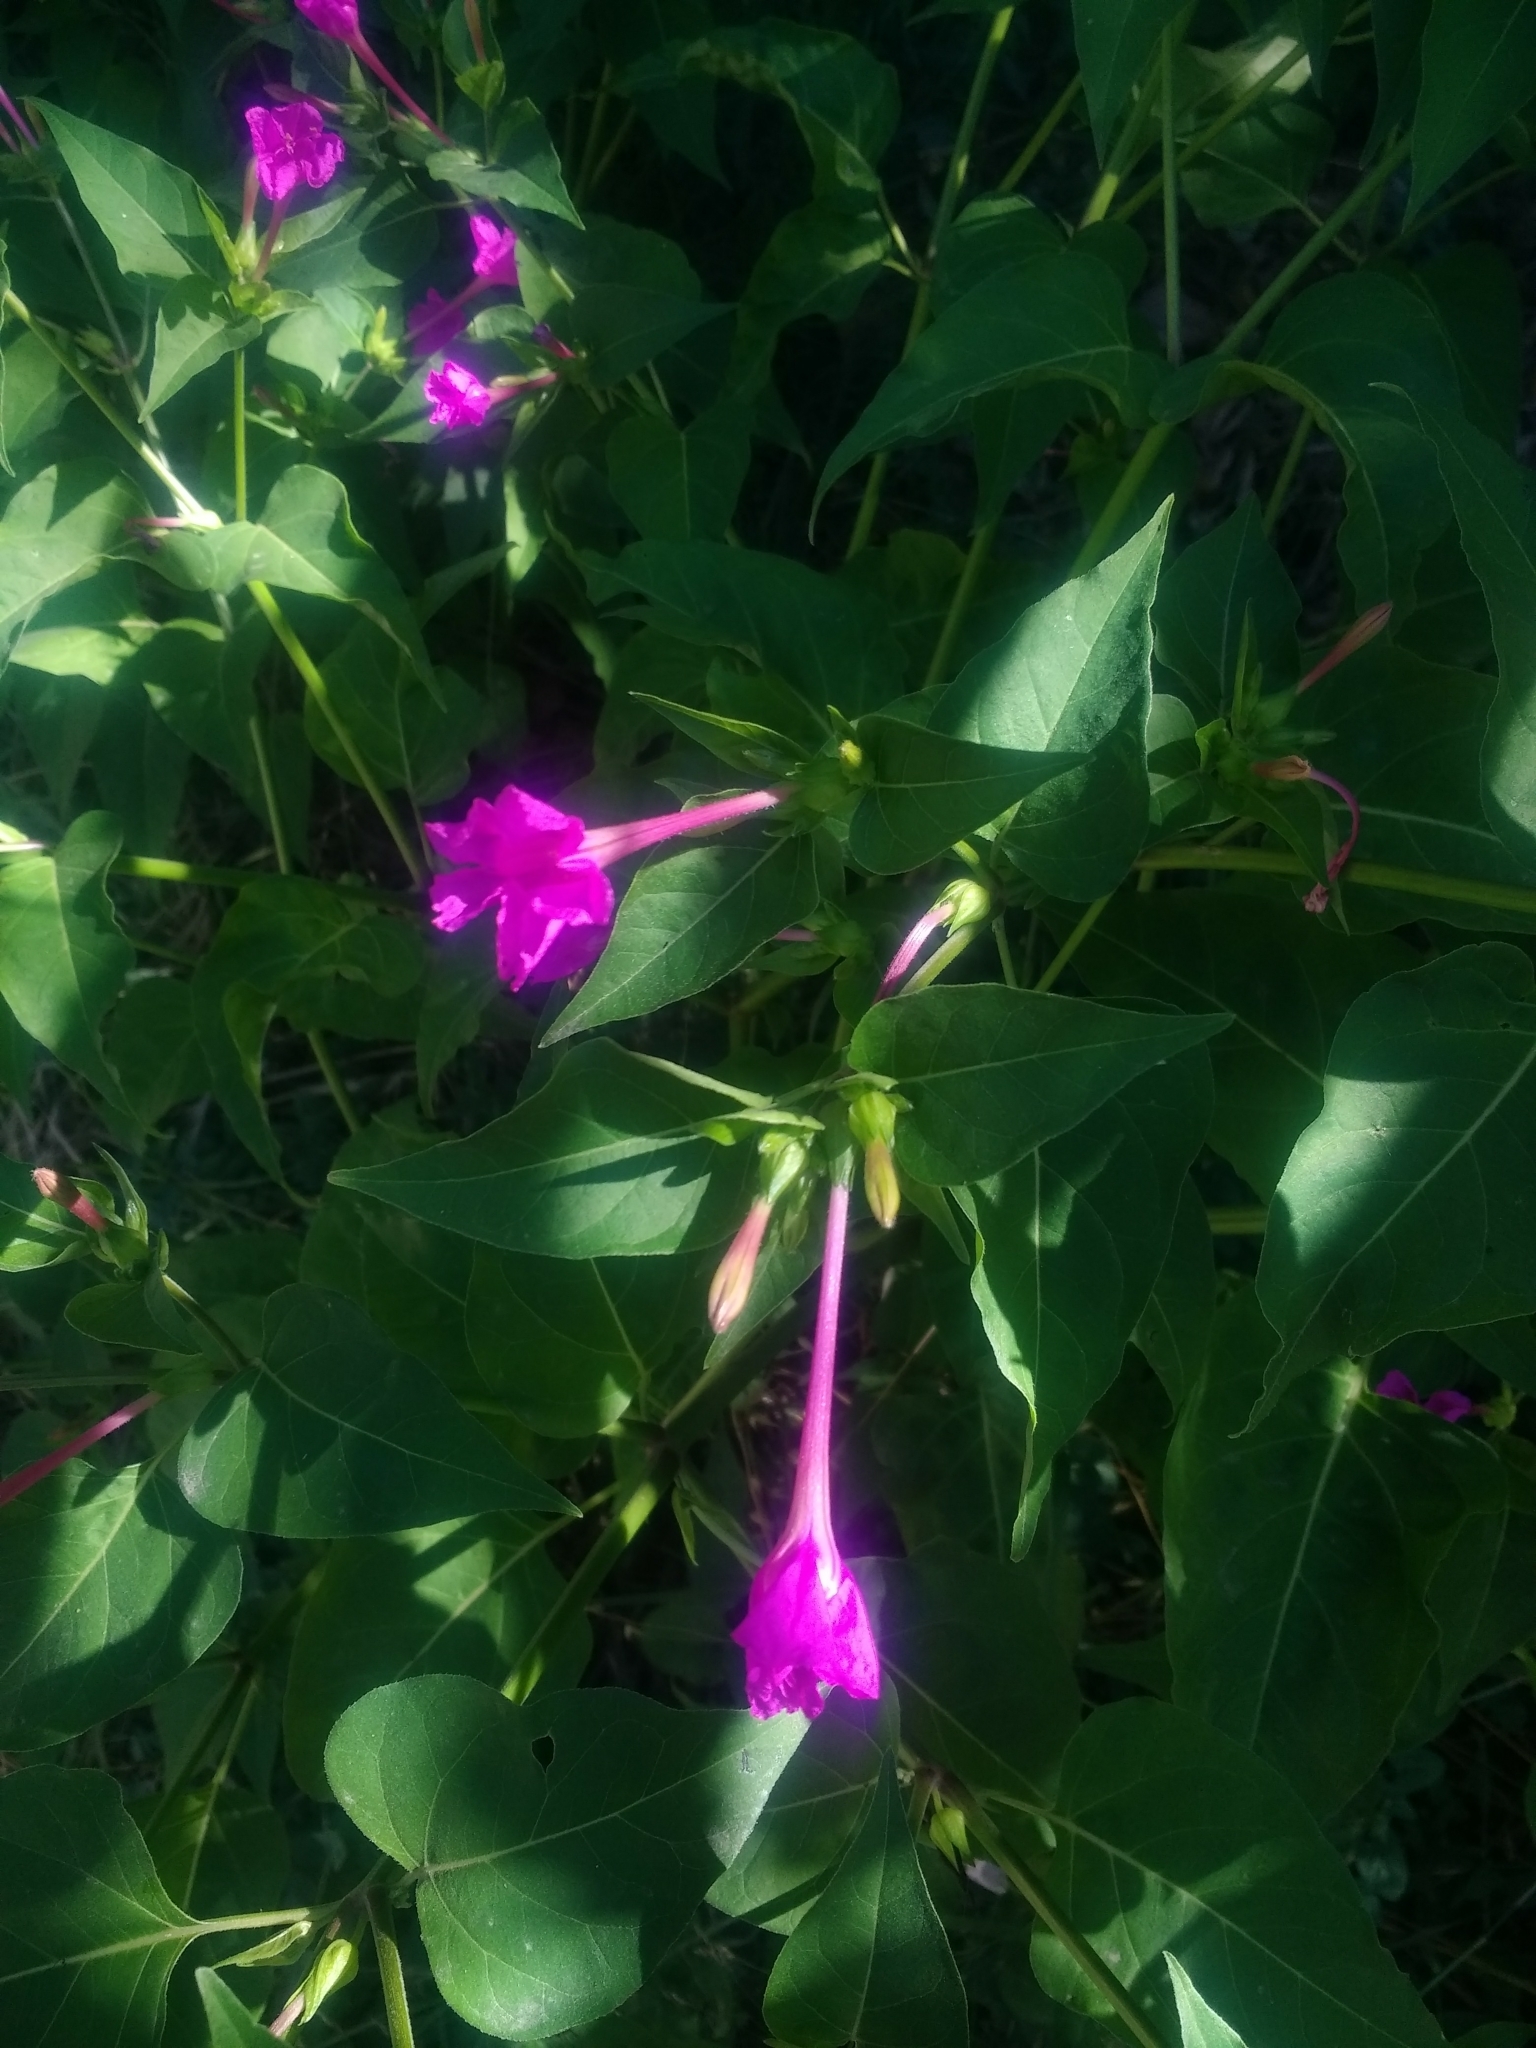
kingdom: Plantae
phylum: Tracheophyta
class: Magnoliopsida
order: Caryophyllales
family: Nyctaginaceae
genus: Mirabilis
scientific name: Mirabilis jalapa
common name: Marvel-of-peru
